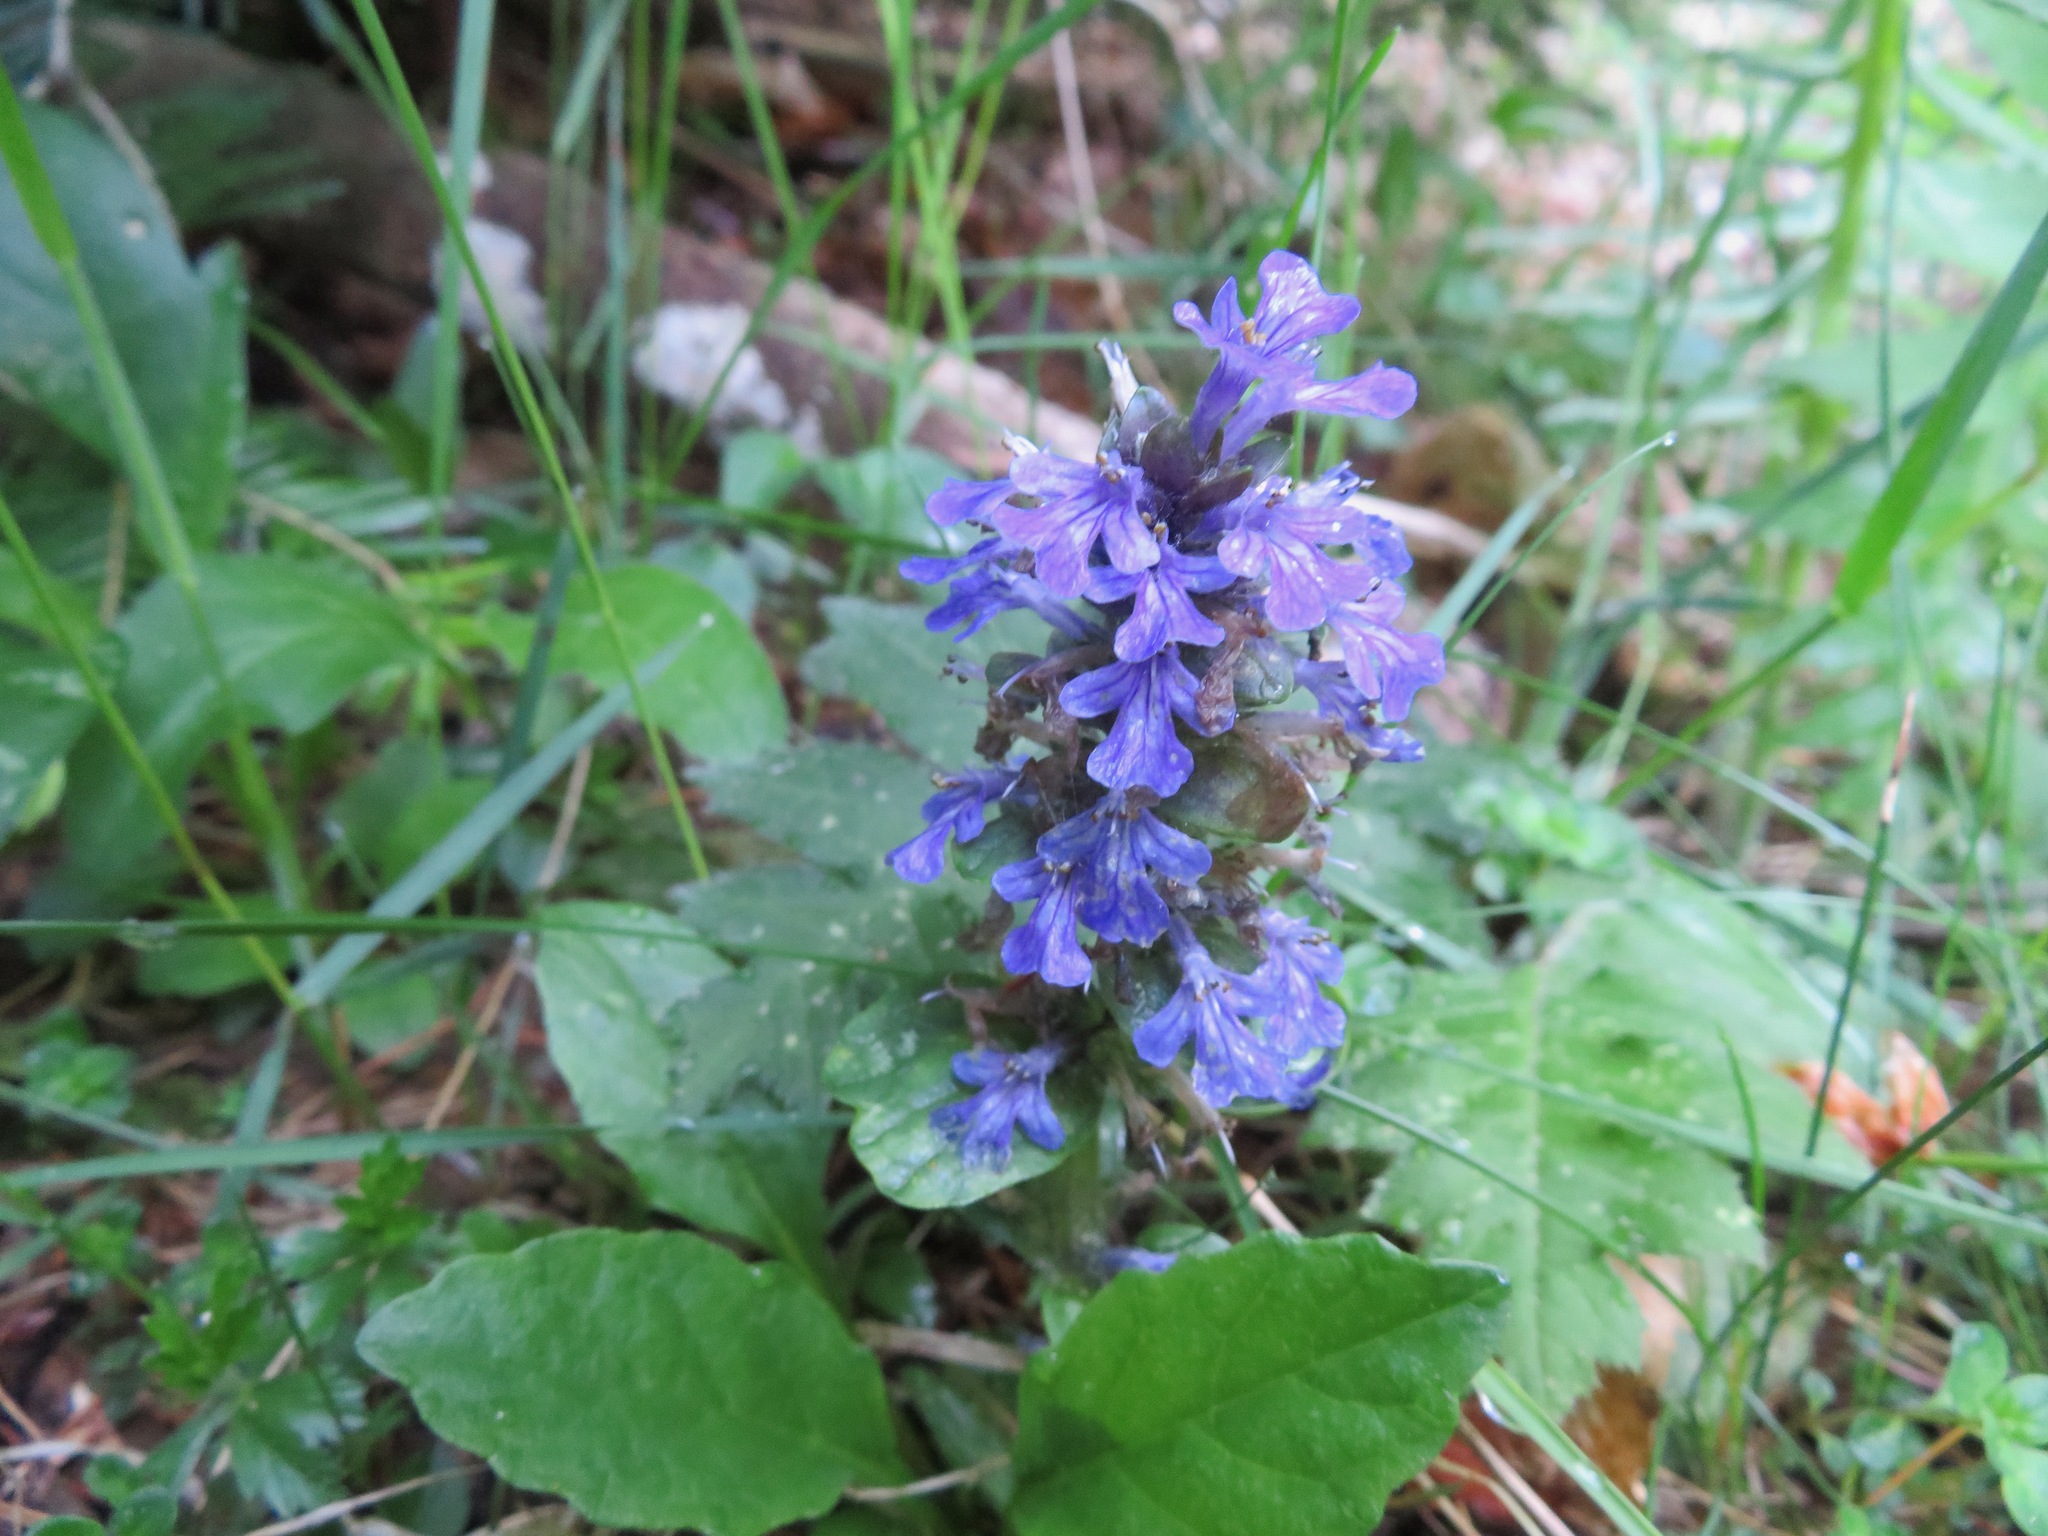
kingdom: Plantae
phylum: Tracheophyta
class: Magnoliopsida
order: Lamiales
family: Lamiaceae
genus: Ajuga
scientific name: Ajuga reptans
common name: Bugle
